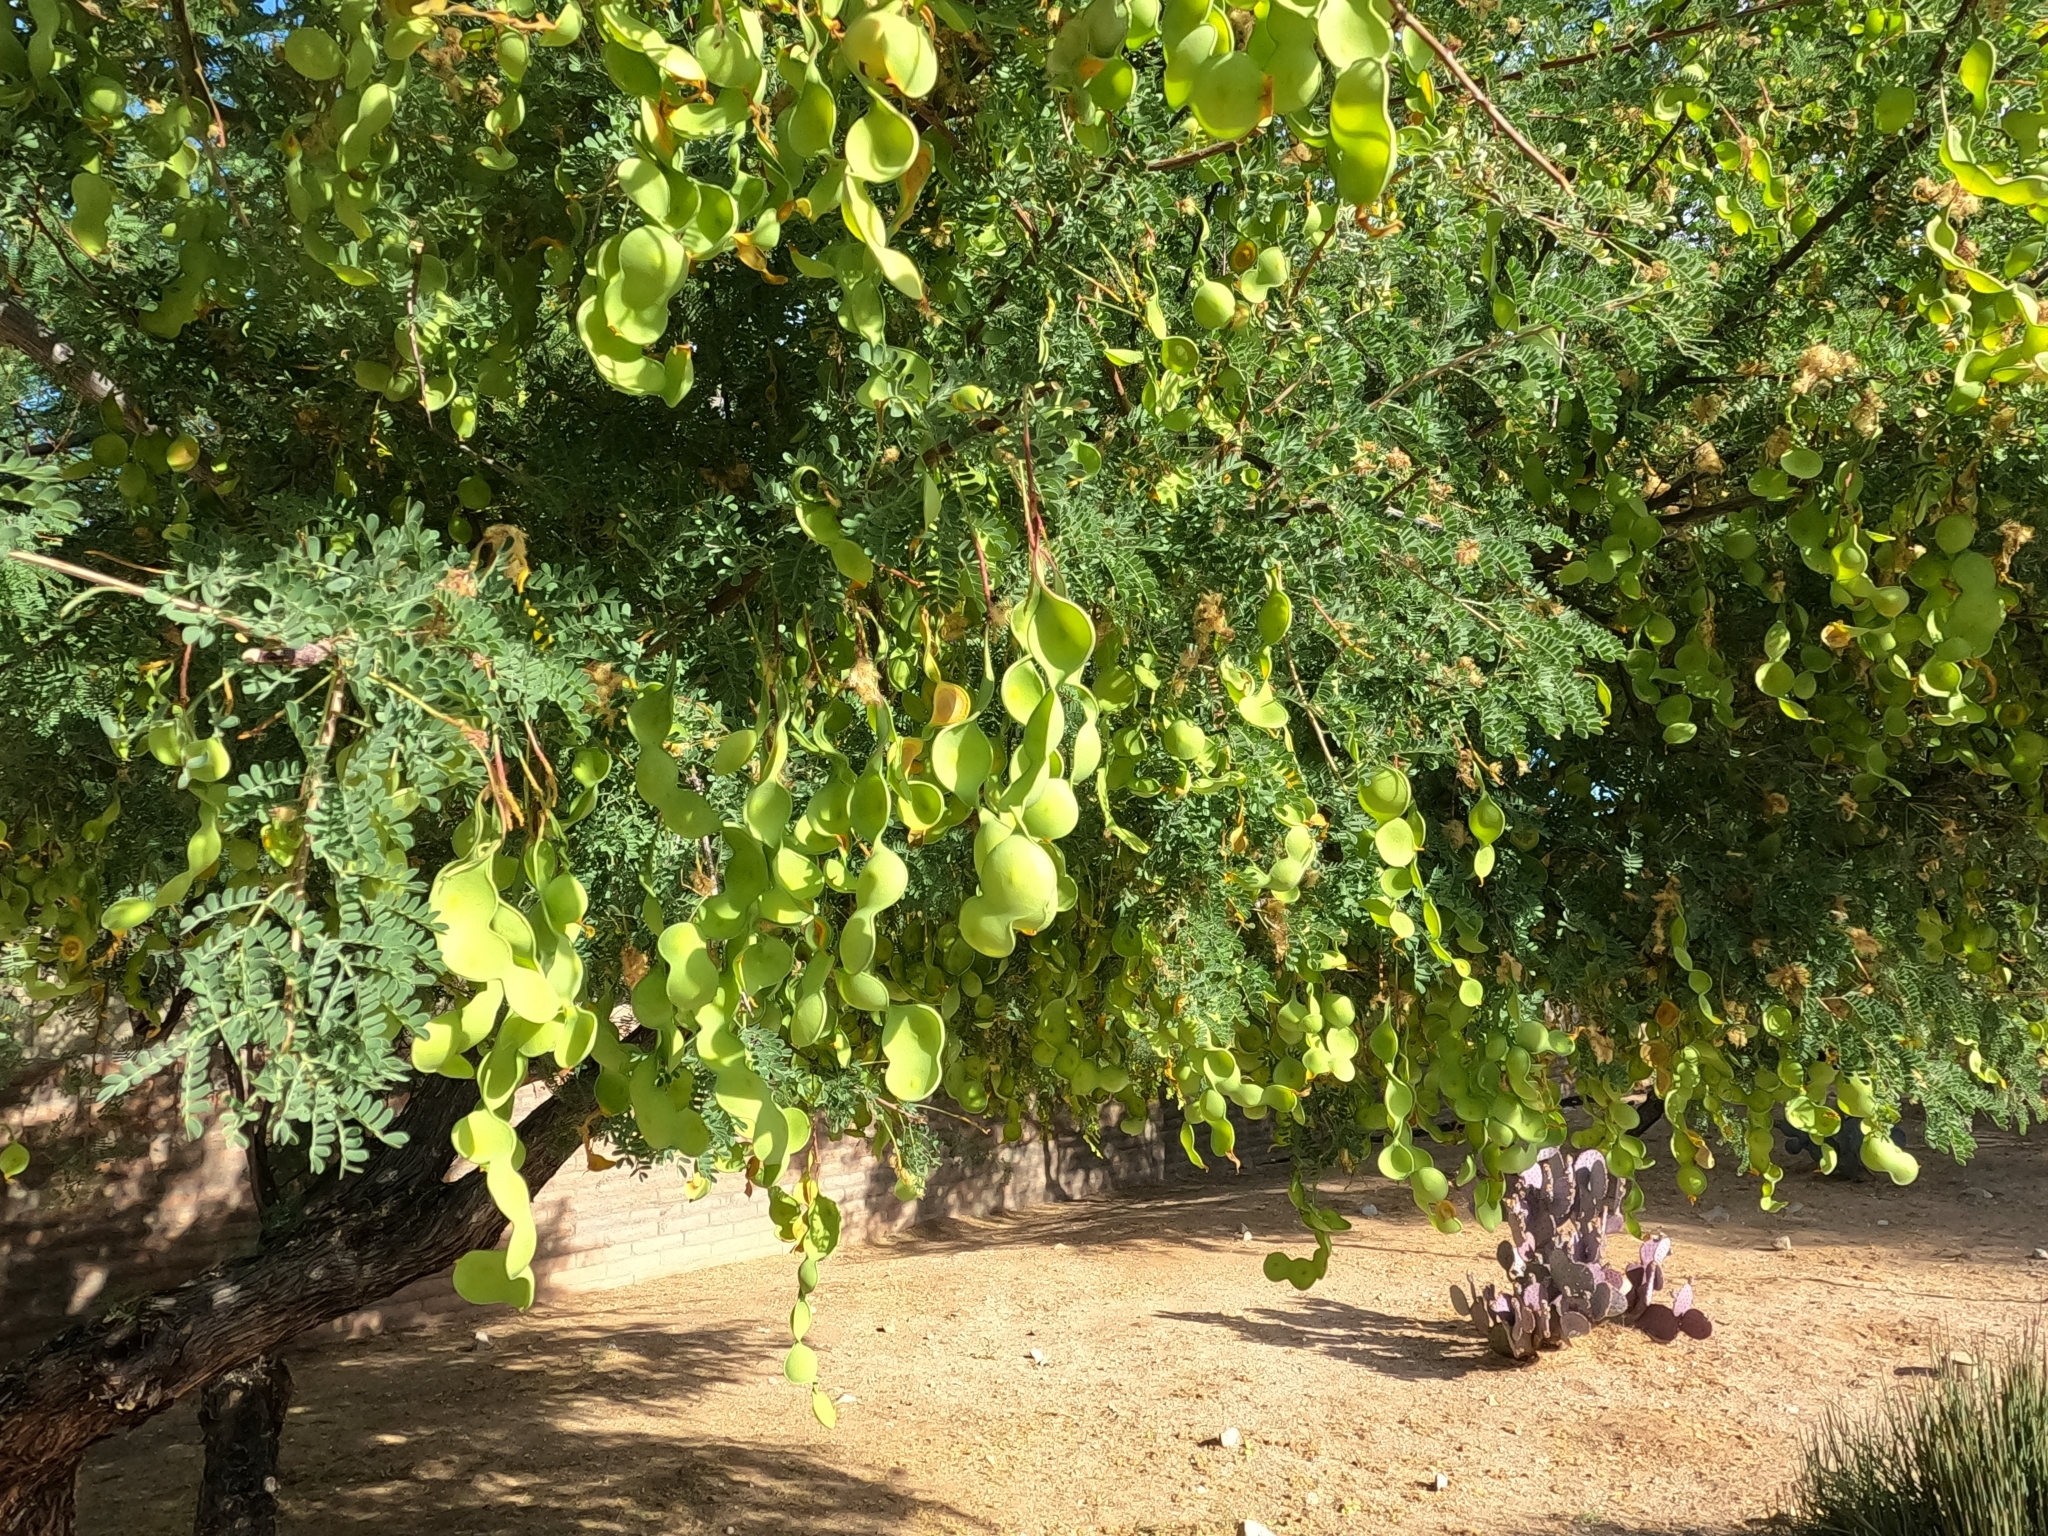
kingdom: Plantae
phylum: Tracheophyta
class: Magnoliopsida
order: Fabales
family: Fabaceae
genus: Senegalia
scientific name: Senegalia greggii
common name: Texas-mimosa
